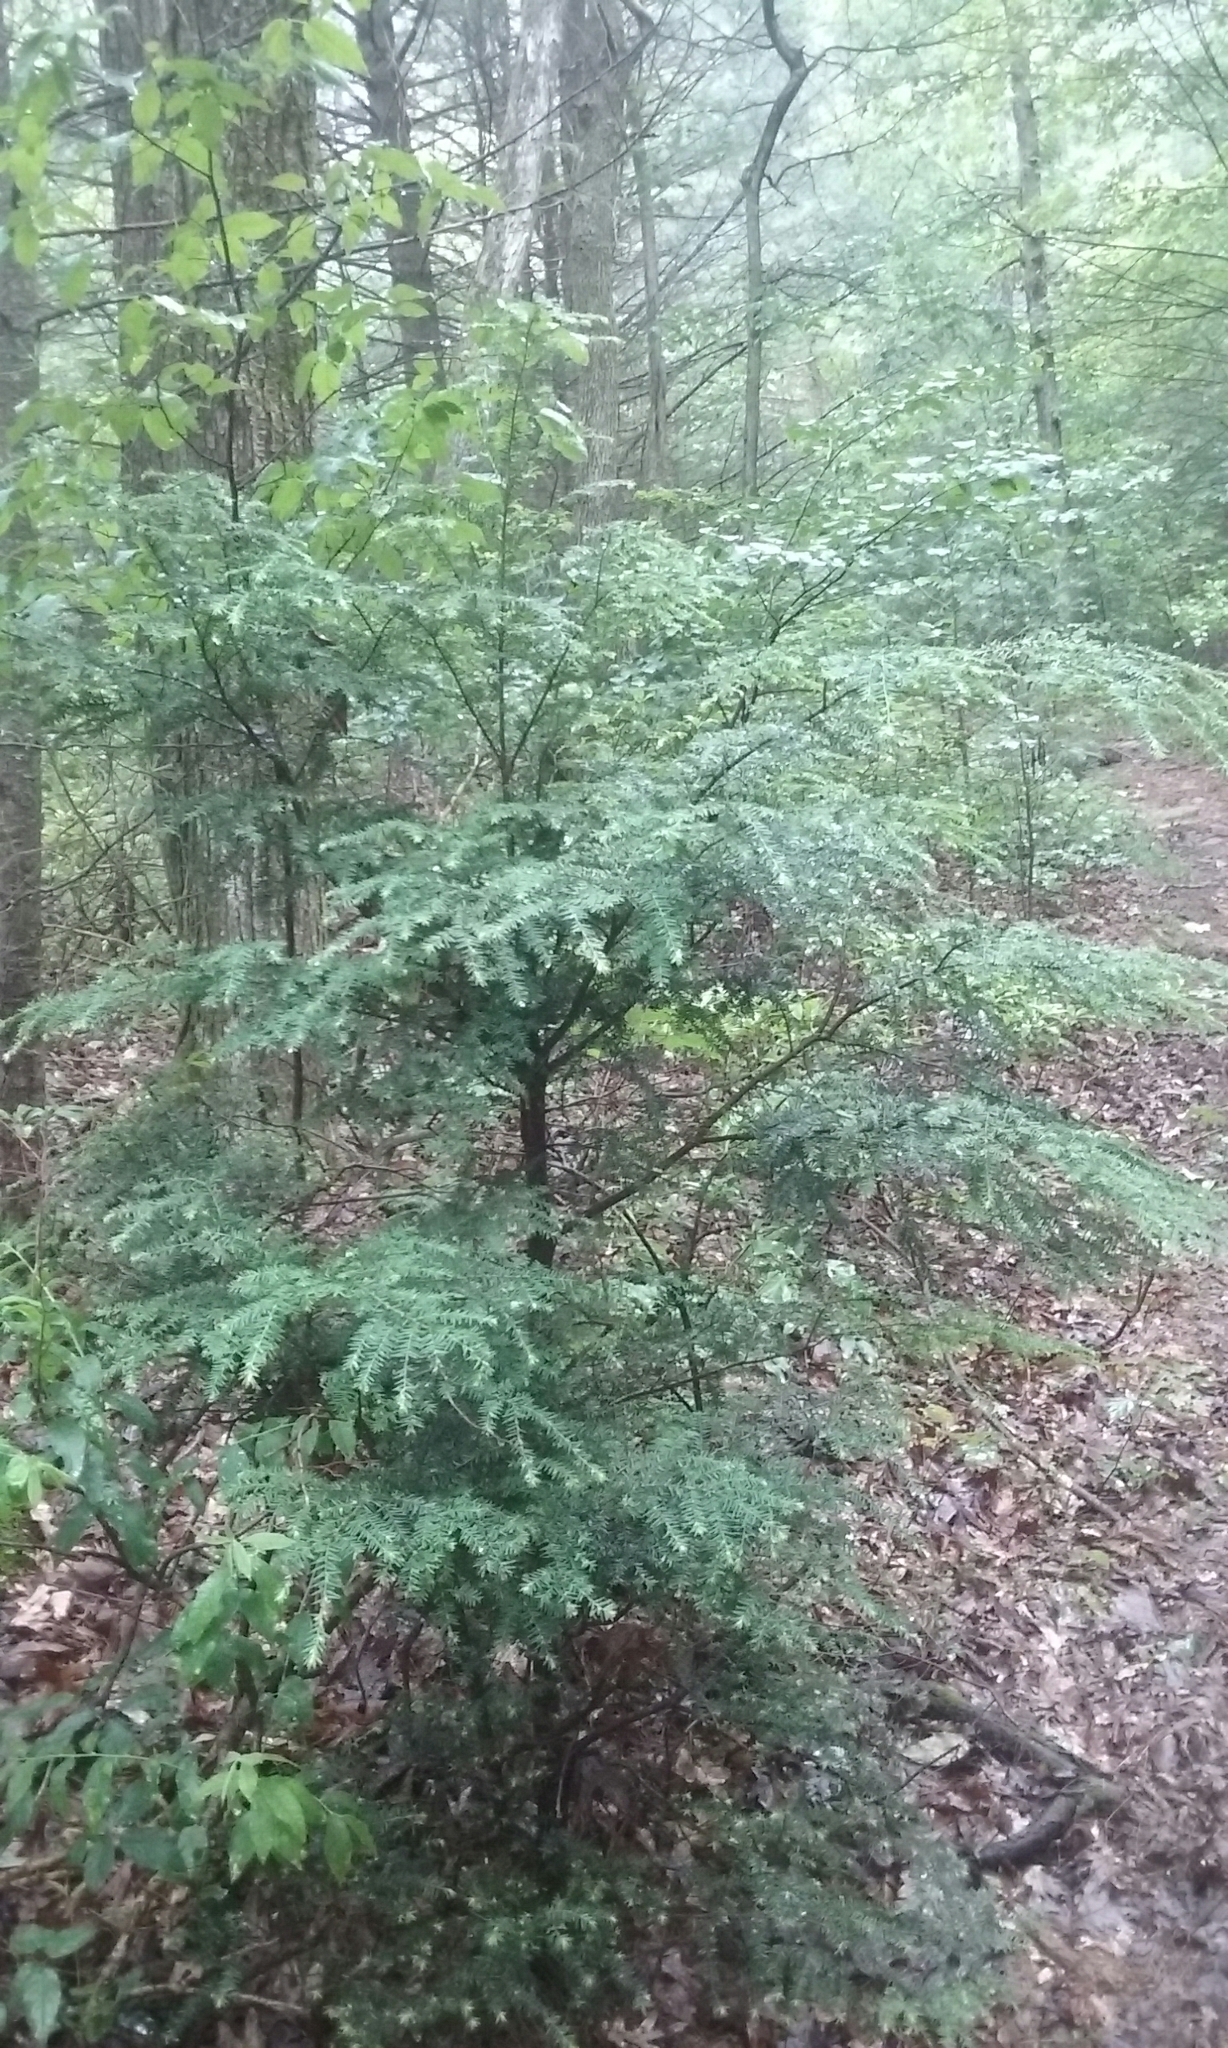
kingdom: Plantae
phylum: Tracheophyta
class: Pinopsida
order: Pinales
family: Pinaceae
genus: Tsuga
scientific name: Tsuga canadensis
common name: Eastern hemlock
